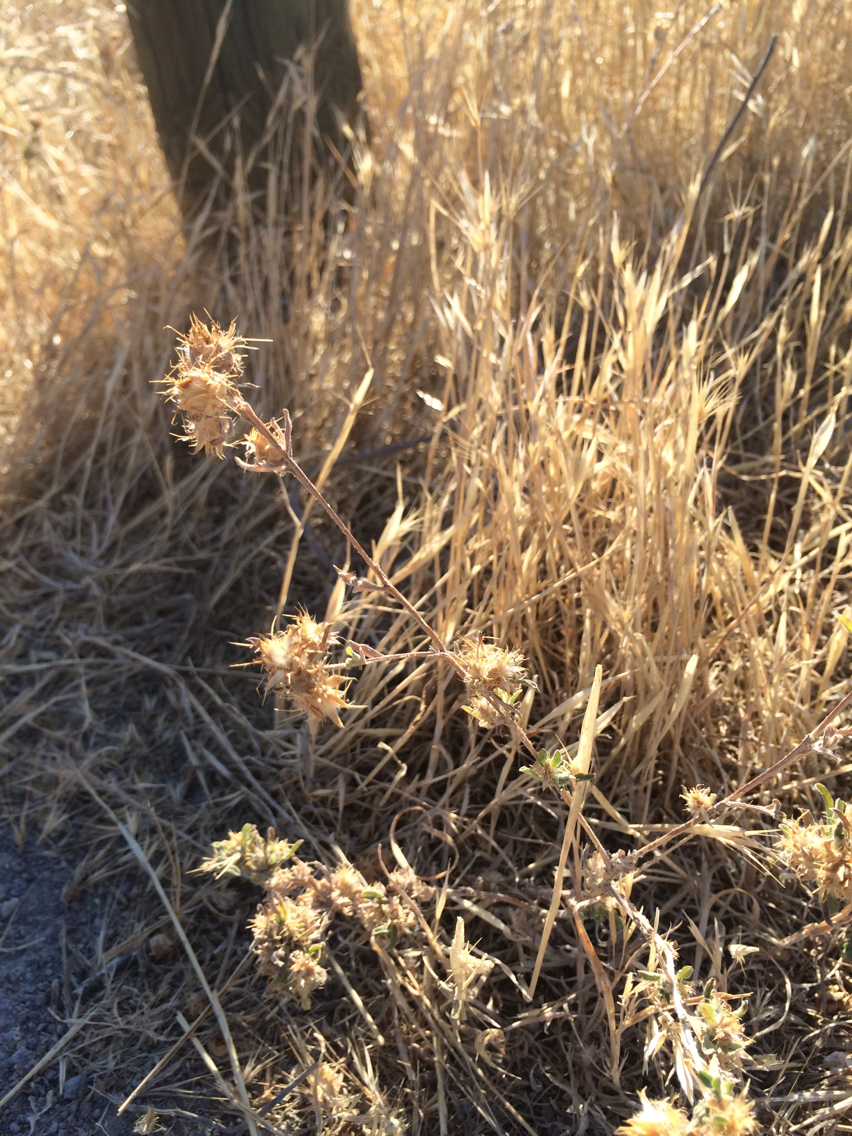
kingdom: Plantae
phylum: Tracheophyta
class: Magnoliopsida
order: Asterales
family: Asteraceae
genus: Centaurea
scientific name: Centaurea melitensis
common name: Maltese star-thistle
